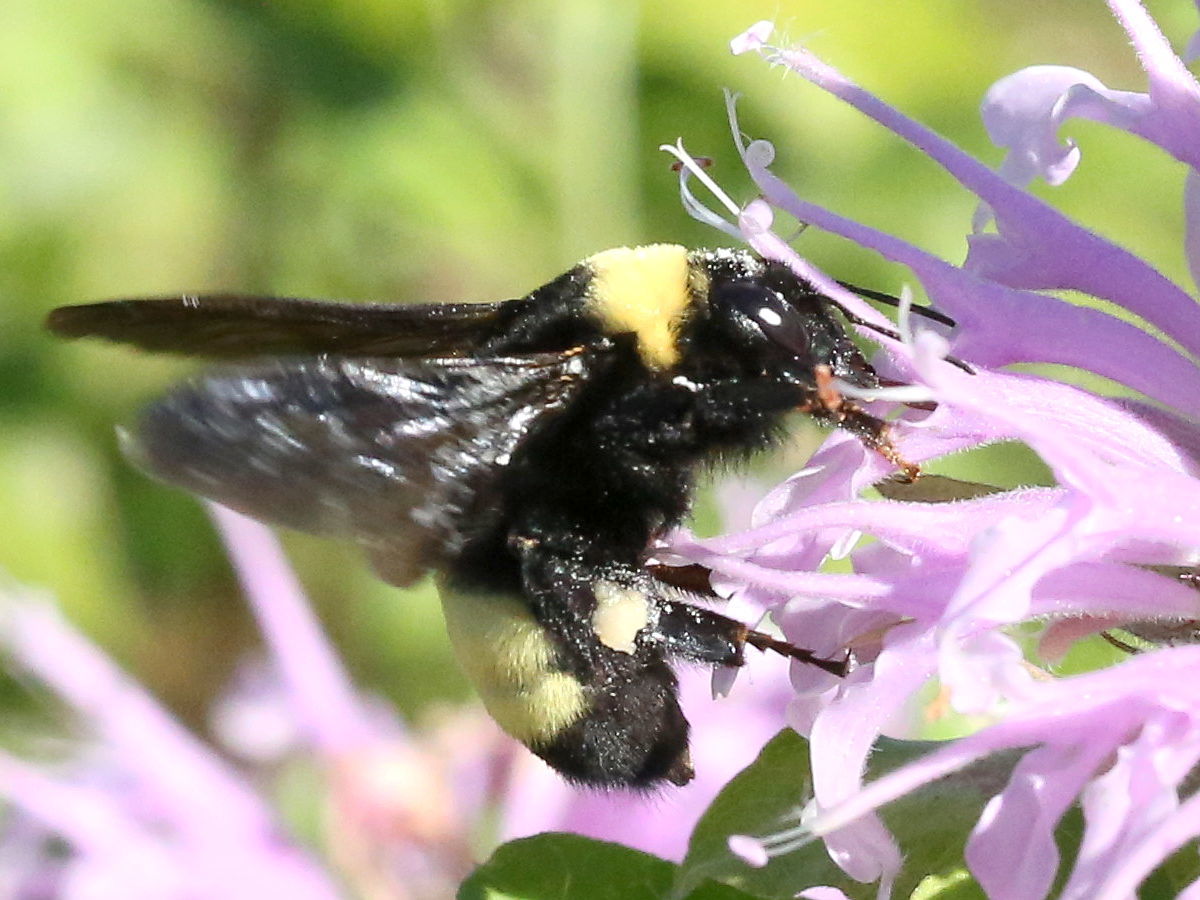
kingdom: Animalia
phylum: Arthropoda
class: Insecta
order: Hymenoptera
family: Apidae
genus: Bombus
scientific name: Bombus auricomus
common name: Black and gold bumble bee
